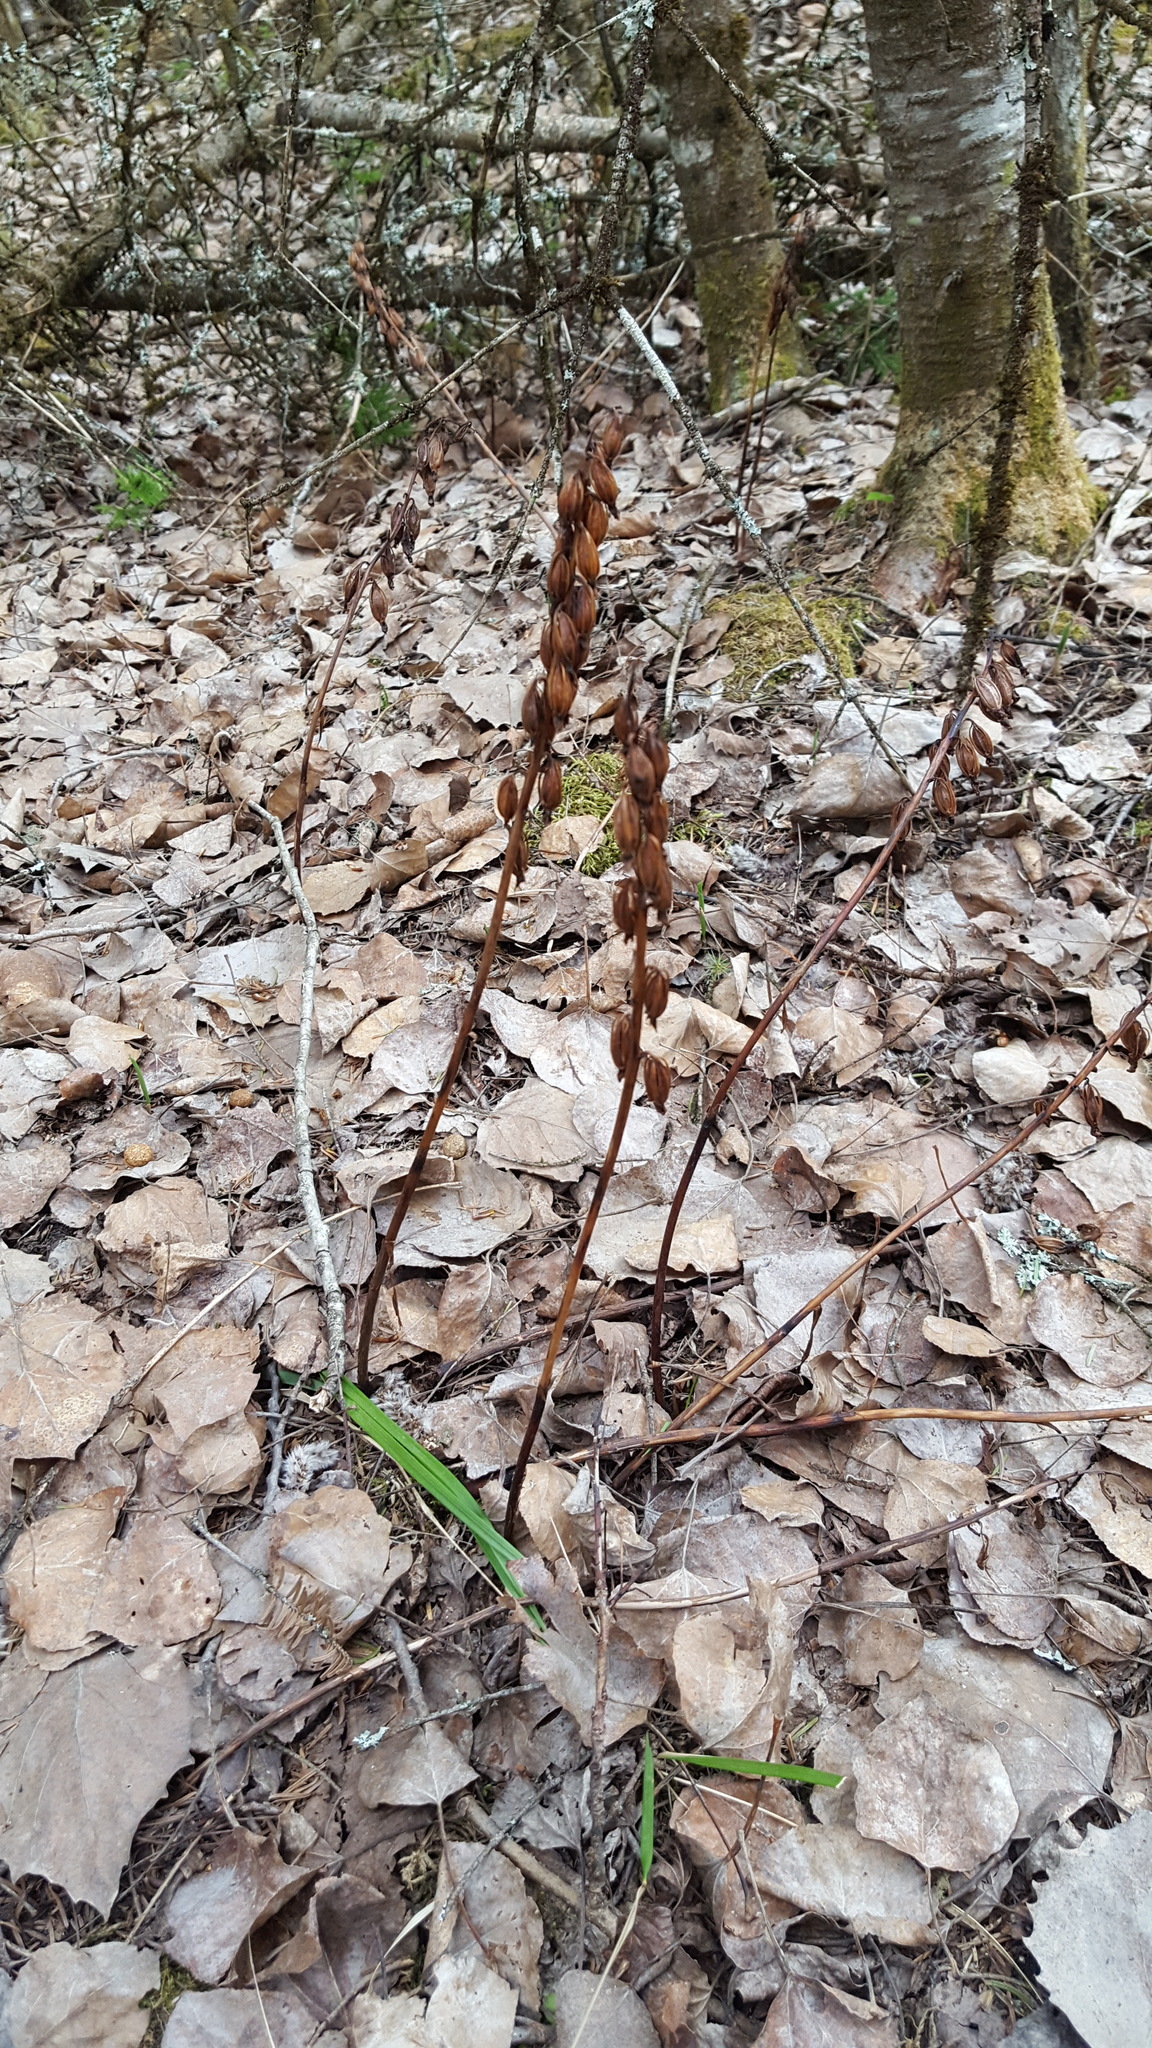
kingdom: Plantae
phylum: Tracheophyta
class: Liliopsida
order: Asparagales
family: Orchidaceae
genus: Corallorhiza
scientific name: Corallorhiza maculata
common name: Spotted coralroot
